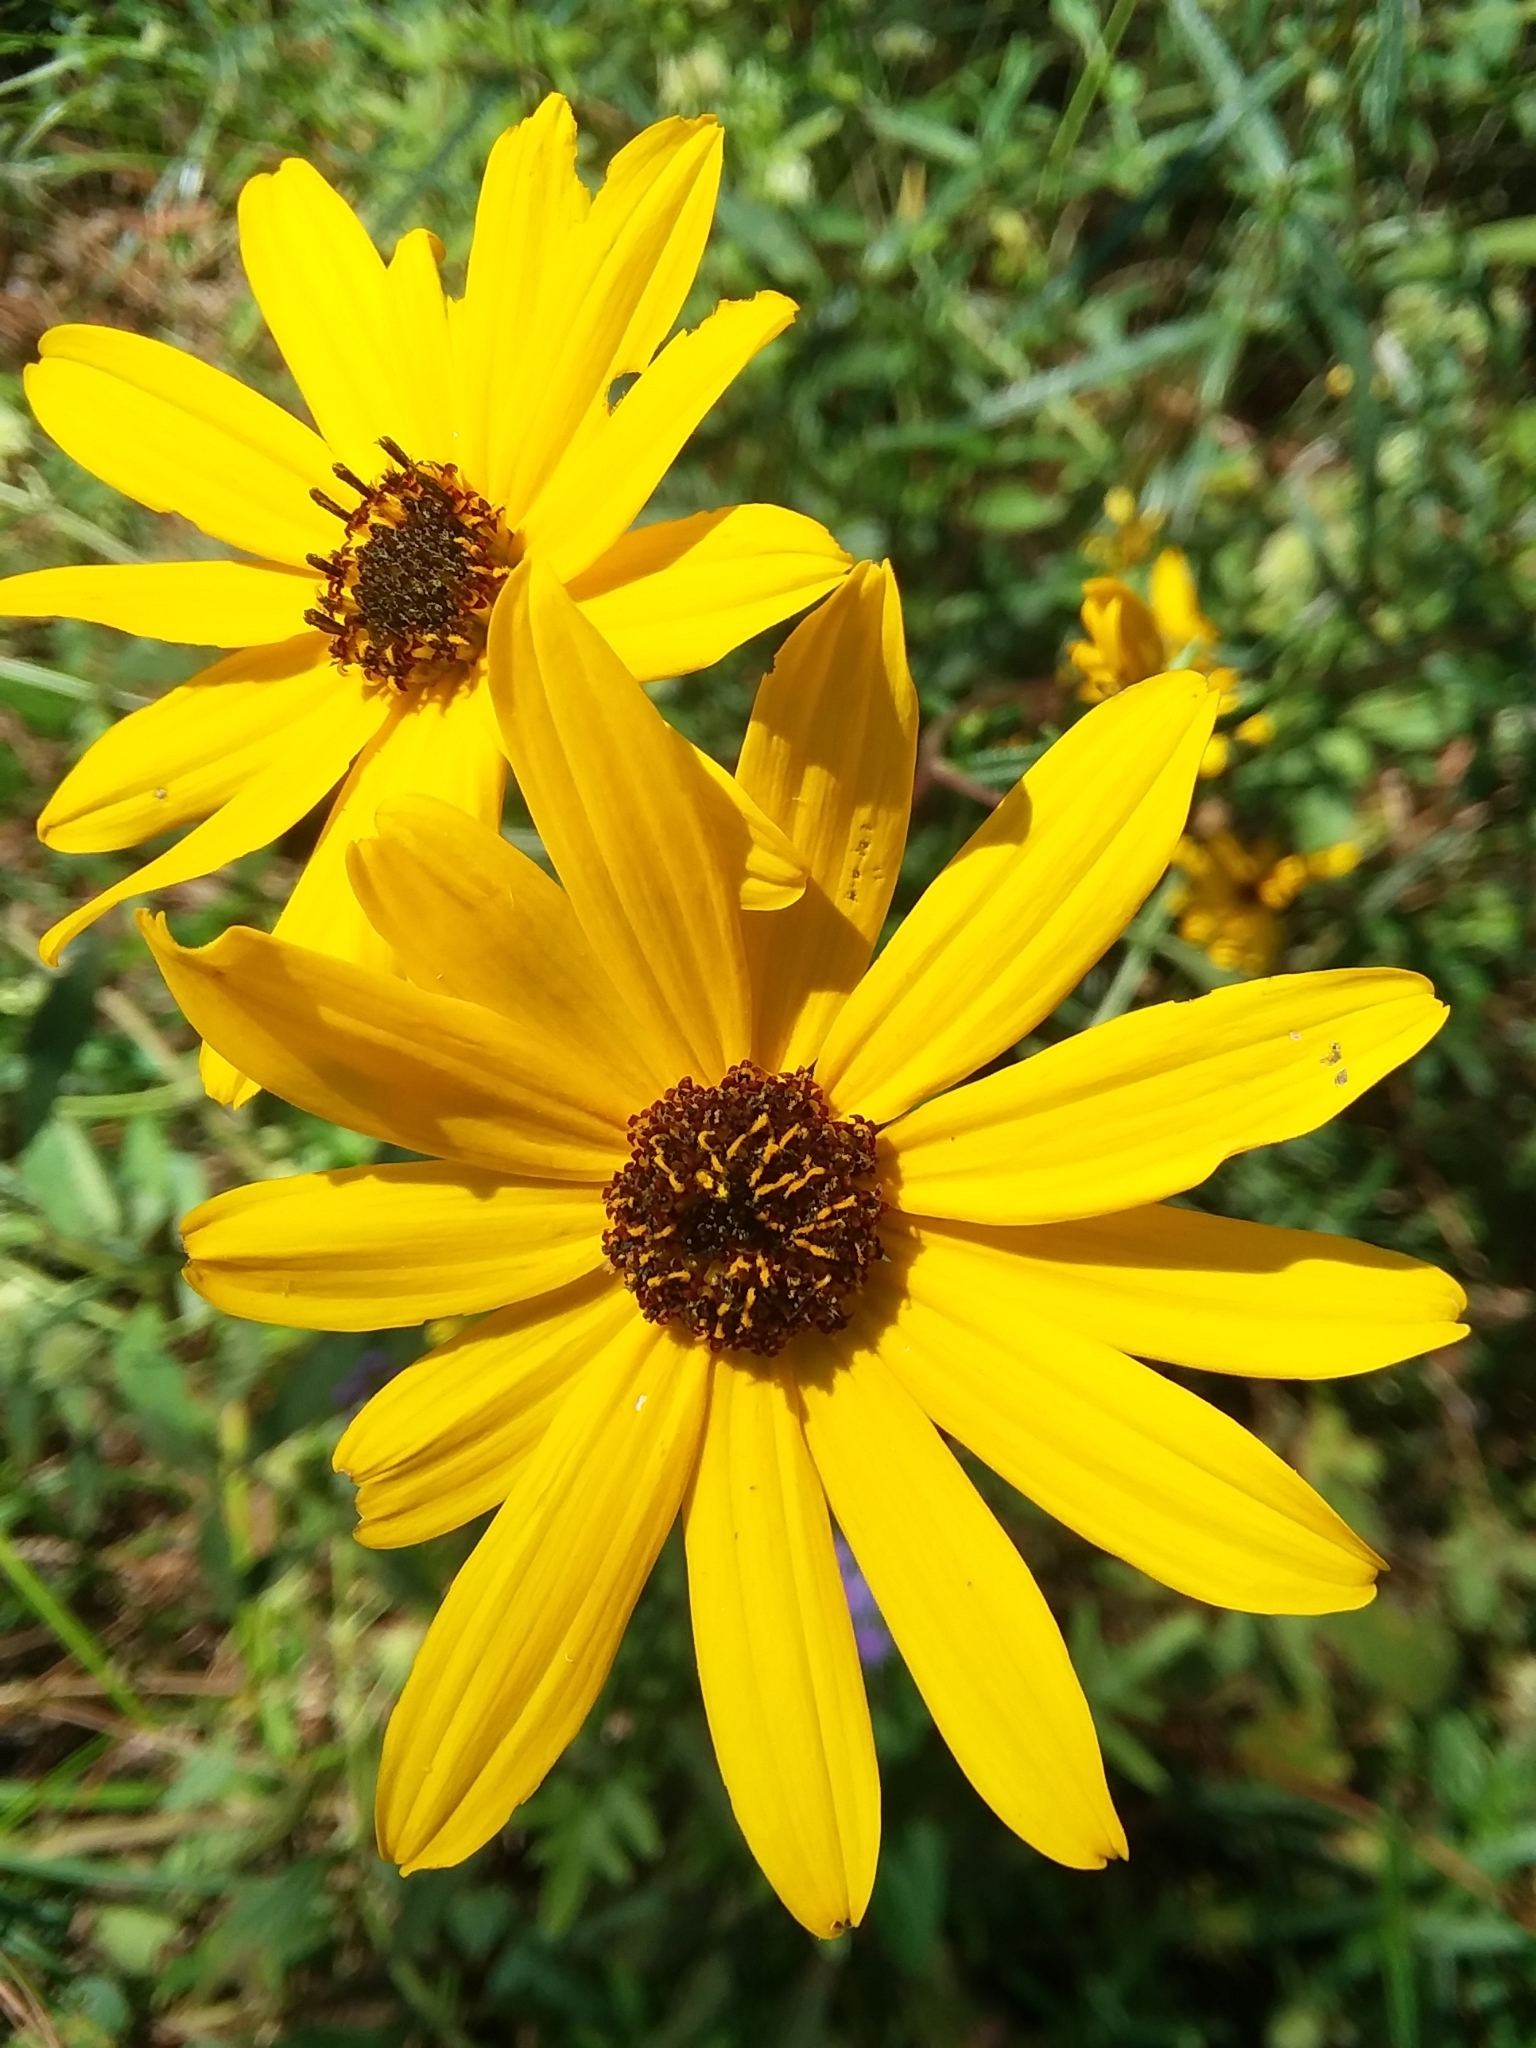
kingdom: Plantae
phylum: Tracheophyta
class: Magnoliopsida
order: Asterales
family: Asteraceae
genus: Helianthus
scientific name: Helianthus angustifolius
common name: Swamp sunflower
